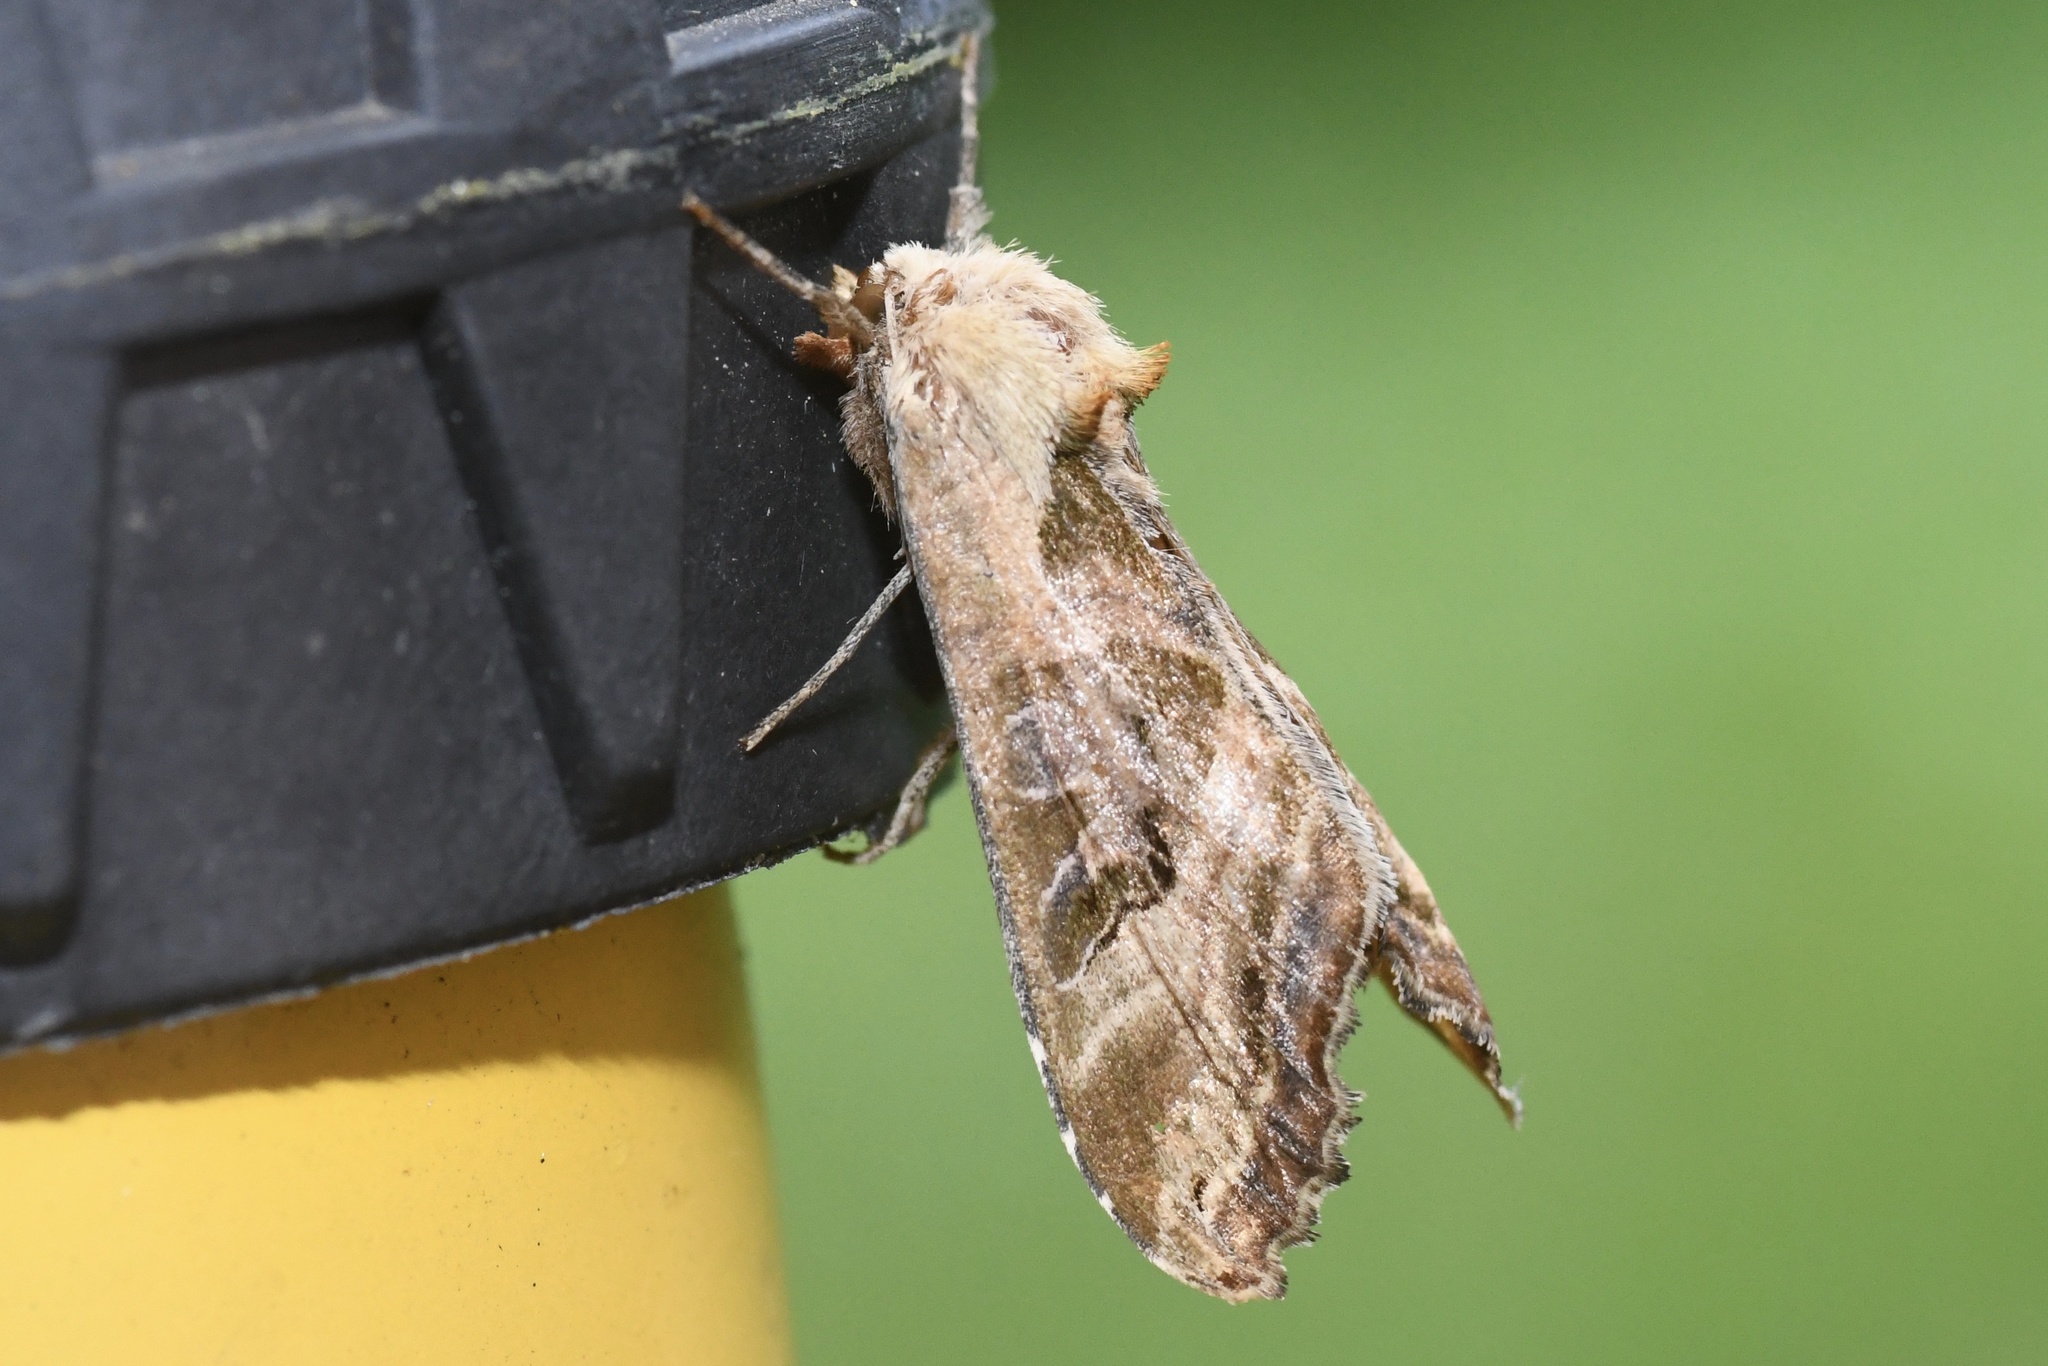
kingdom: Animalia
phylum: Arthropoda
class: Insecta
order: Lepidoptera
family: Noctuidae
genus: Phlogophora
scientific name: Phlogophora iris
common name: Olive angle shades
